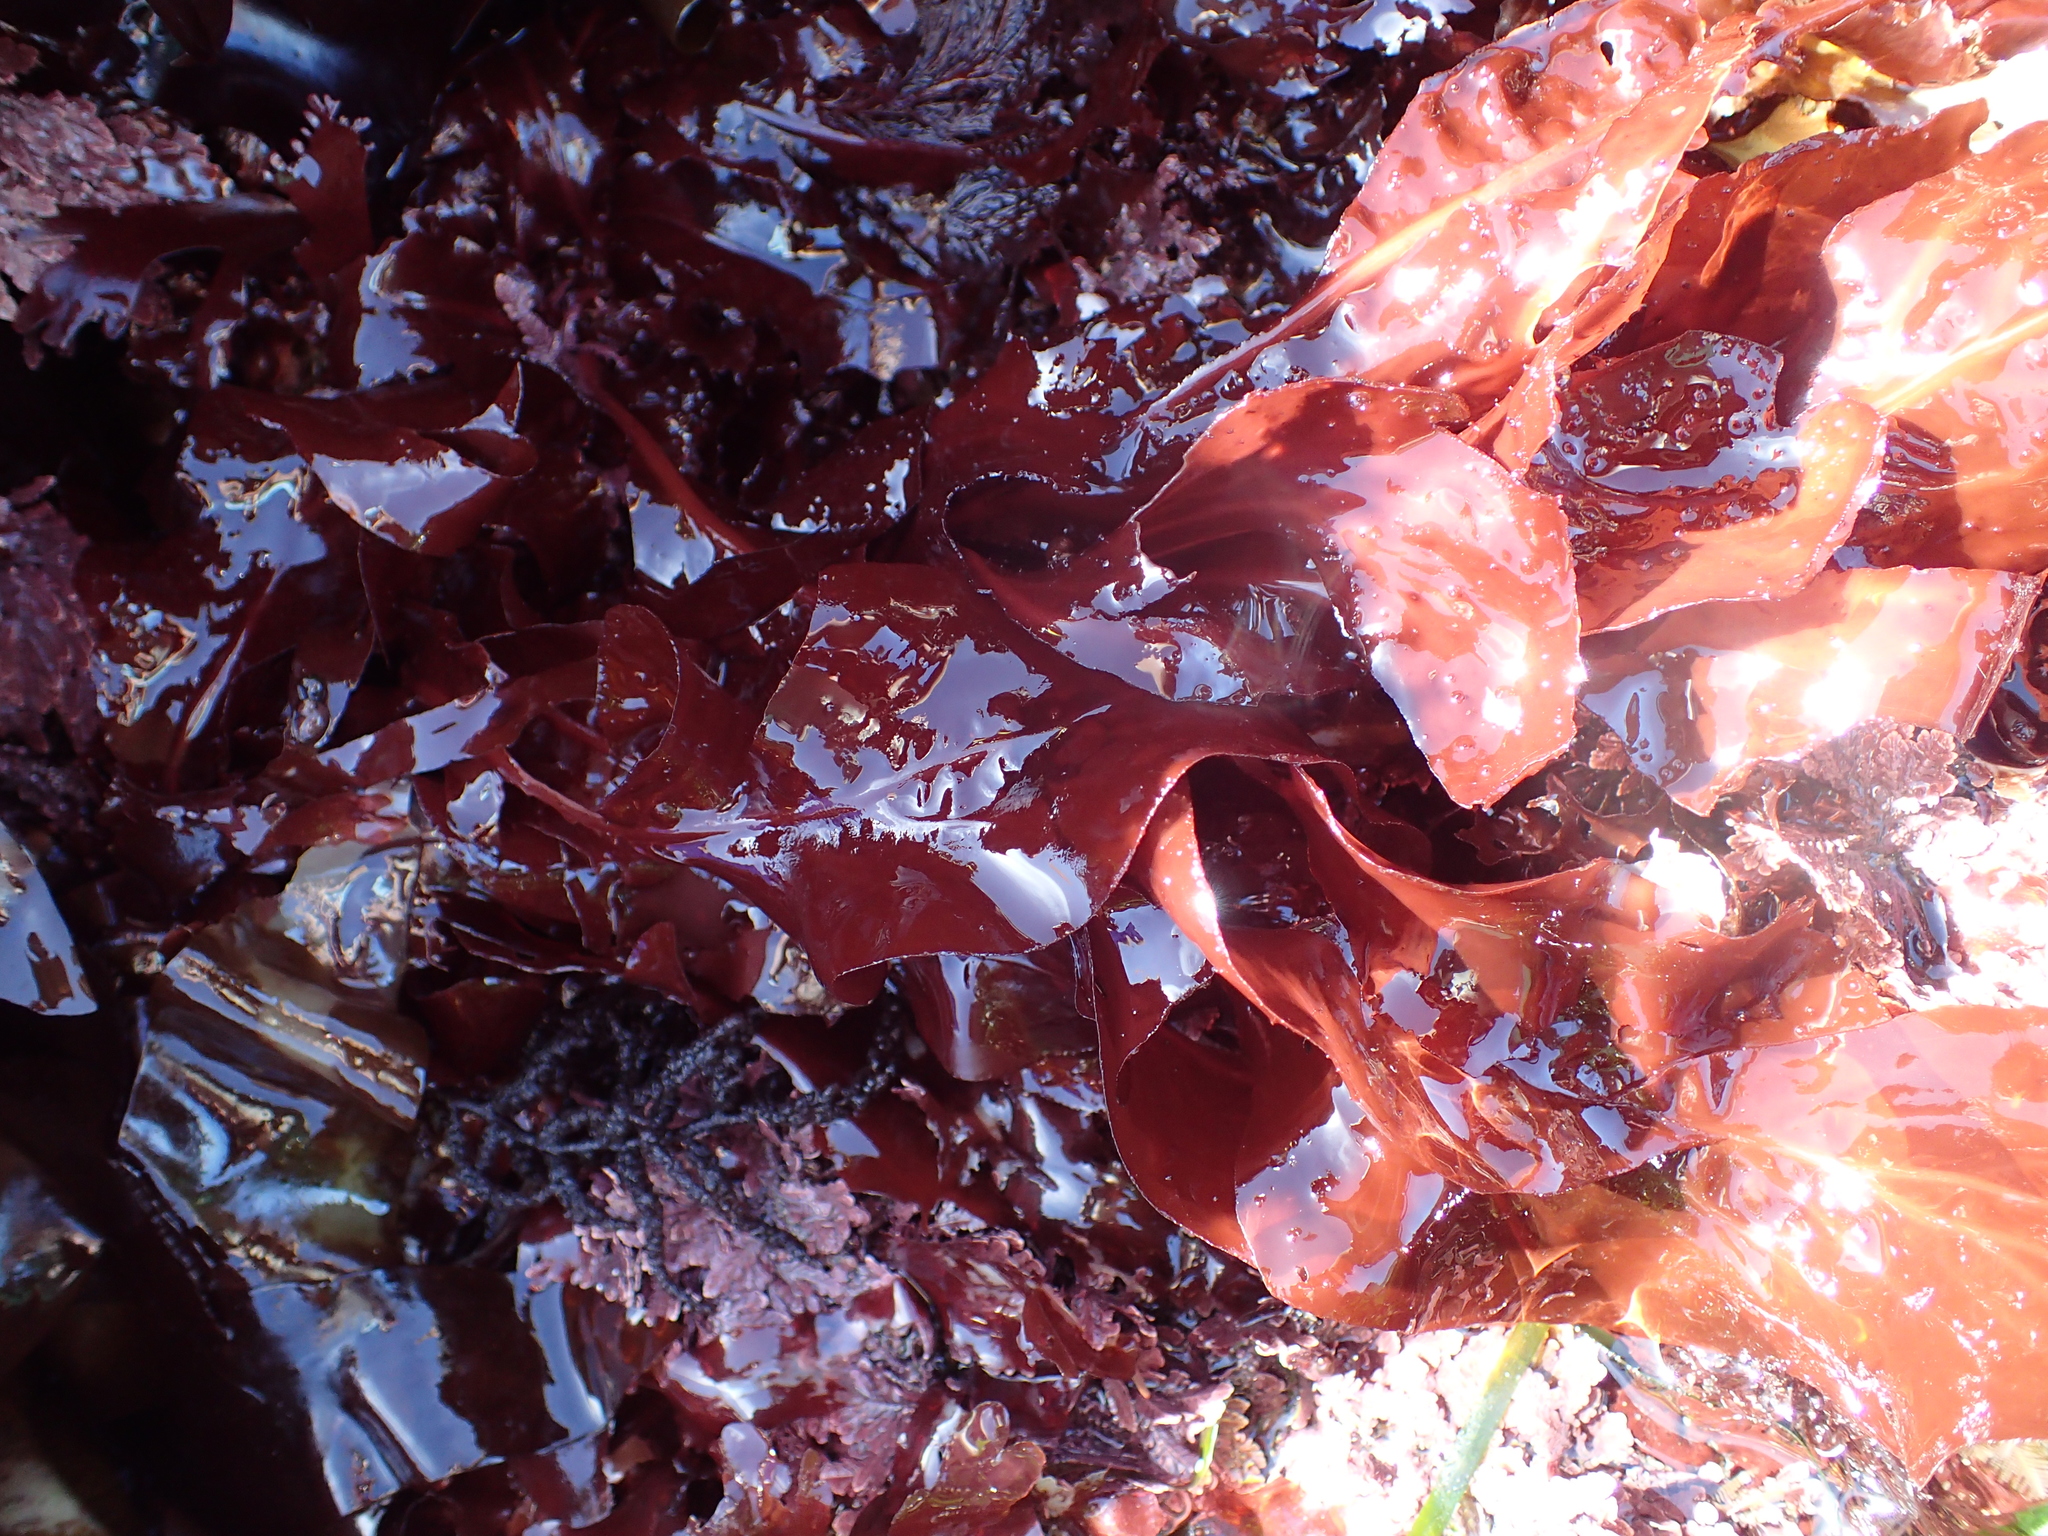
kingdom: Plantae
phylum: Rhodophyta
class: Florideophyceae
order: Gigartinales
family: Kallymeniaceae
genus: Erythrophyllum
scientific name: Erythrophyllum delesserioides
